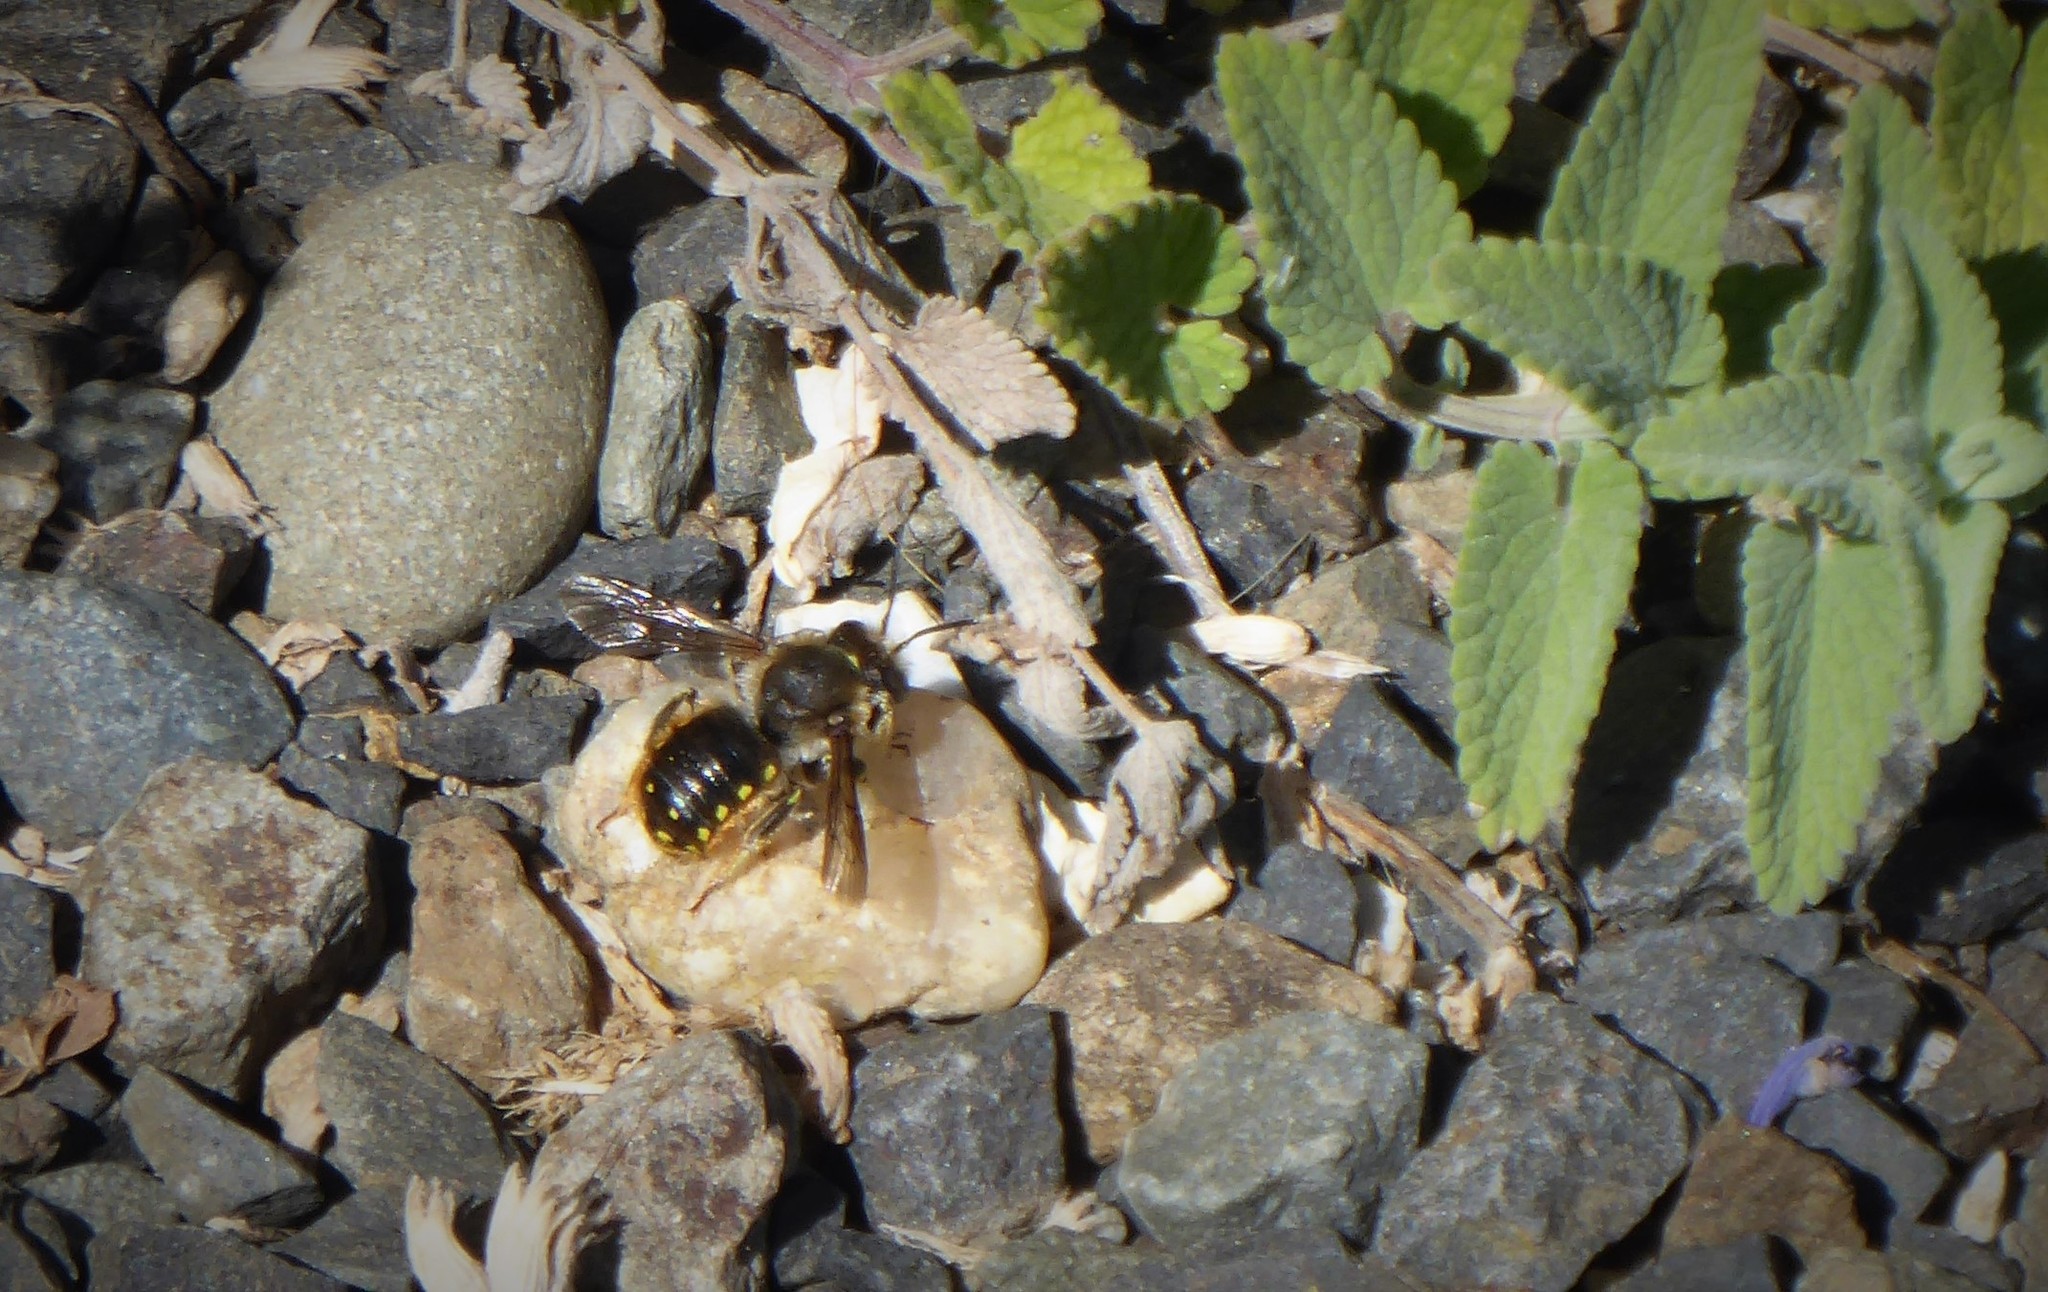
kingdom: Animalia
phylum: Arthropoda
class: Insecta
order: Hymenoptera
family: Megachilidae
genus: Anthidium
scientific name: Anthidium manicatum
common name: Wool carder bee
